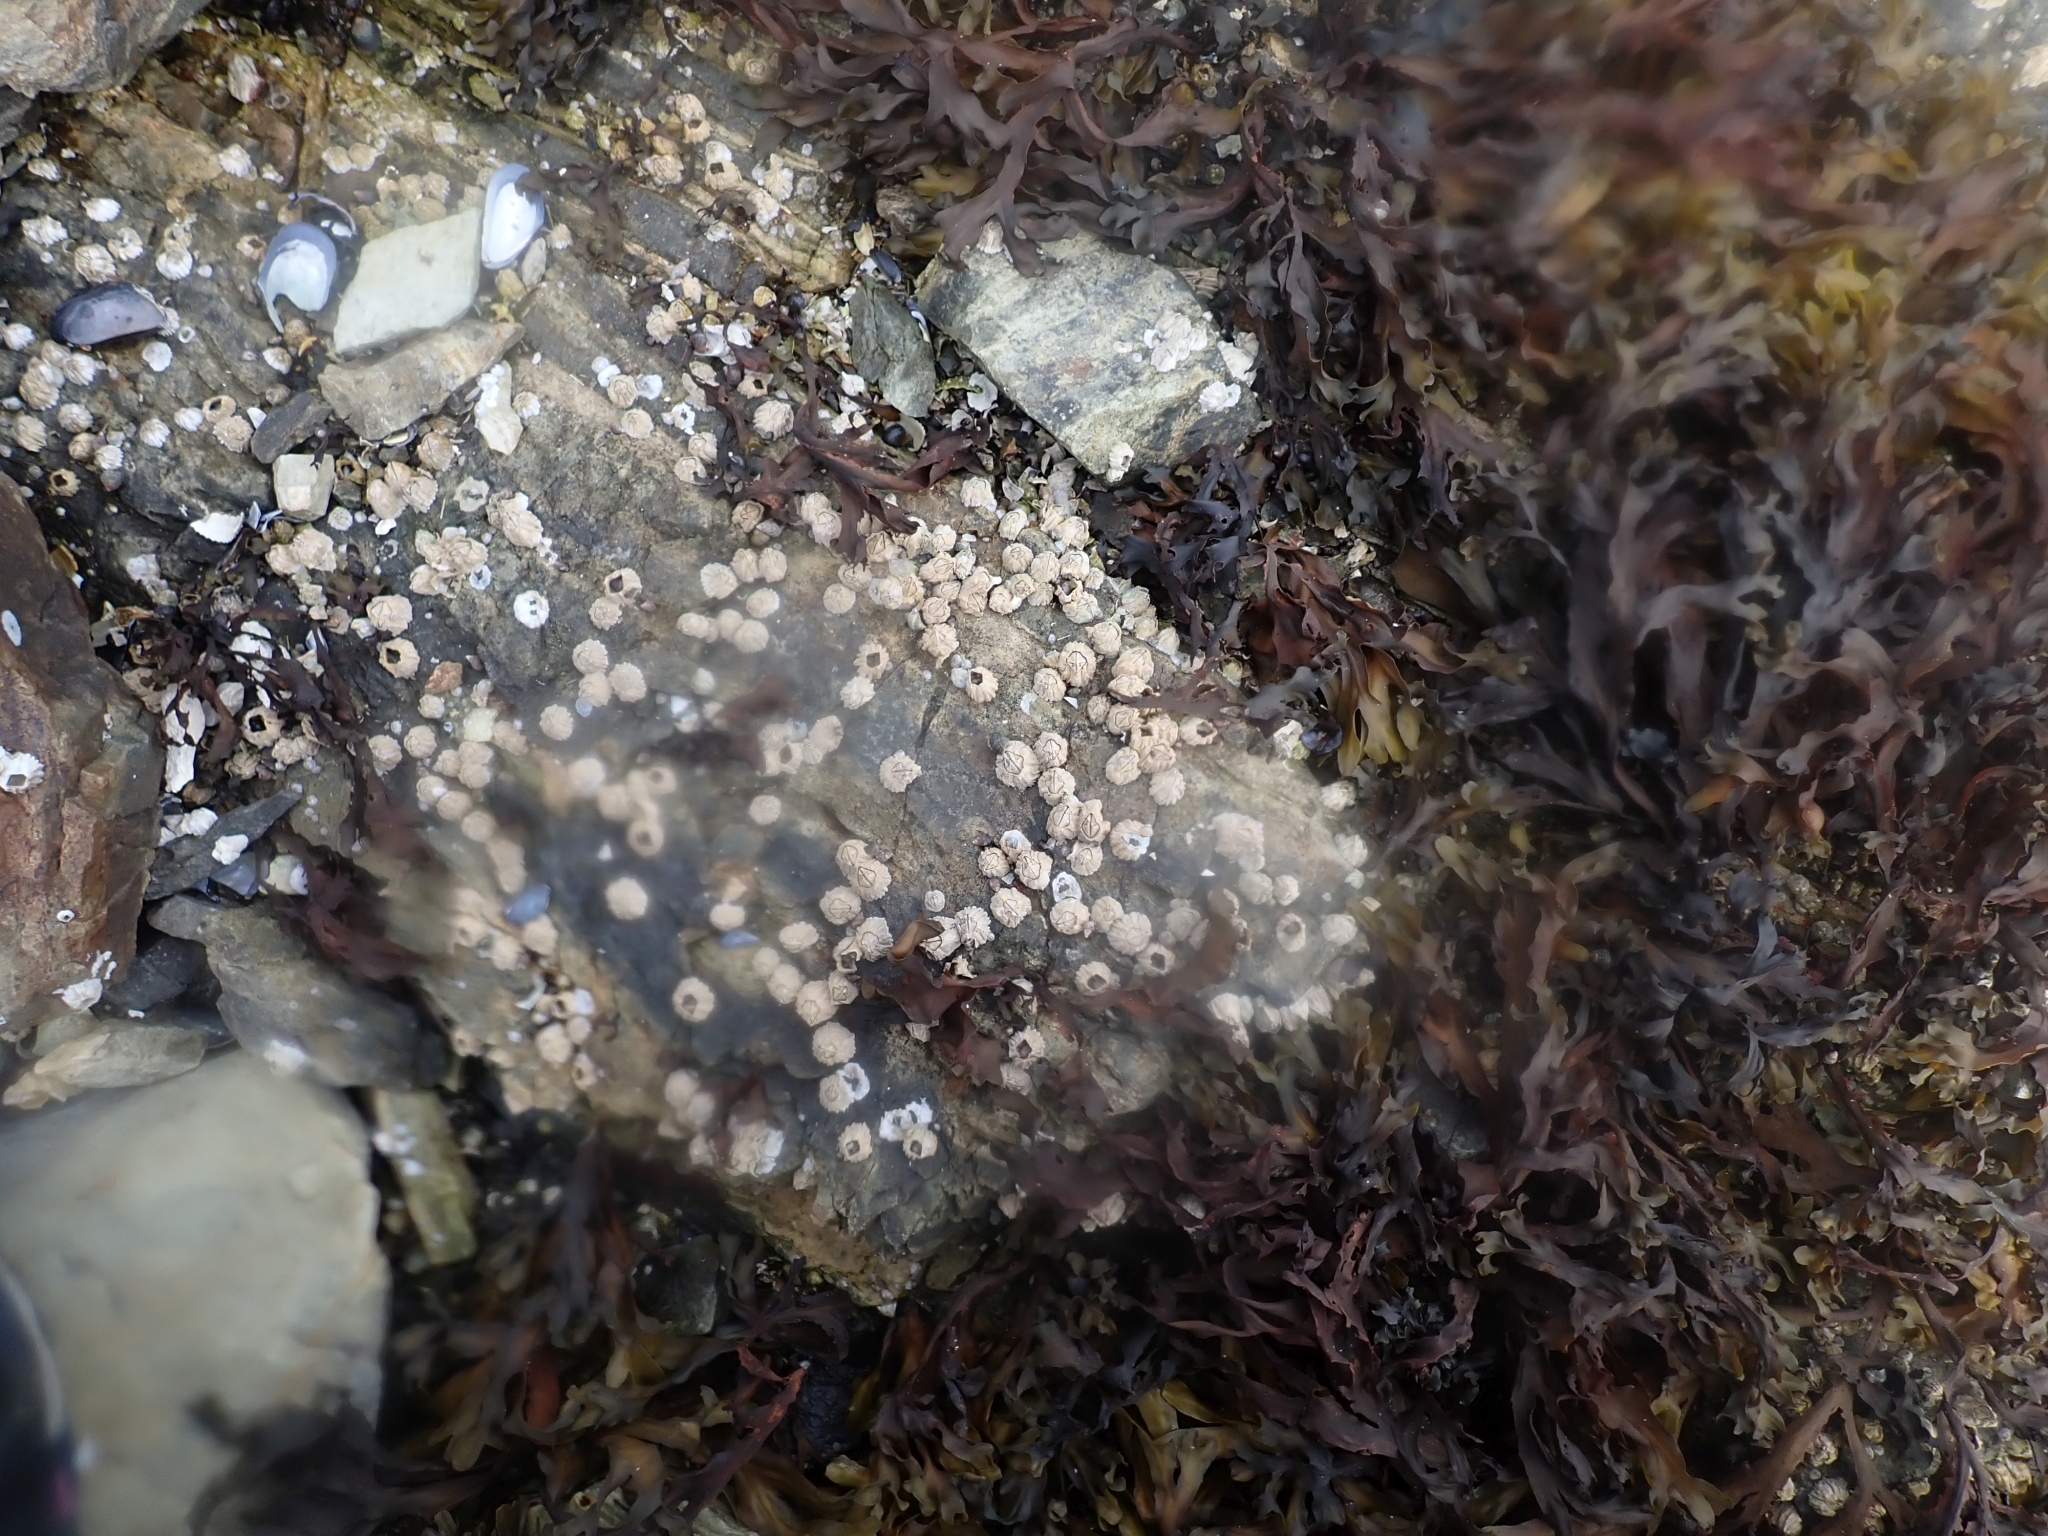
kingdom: Animalia
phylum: Arthropoda
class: Maxillopoda
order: Sessilia
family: Balanidae
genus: Balanus
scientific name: Balanus glandula
